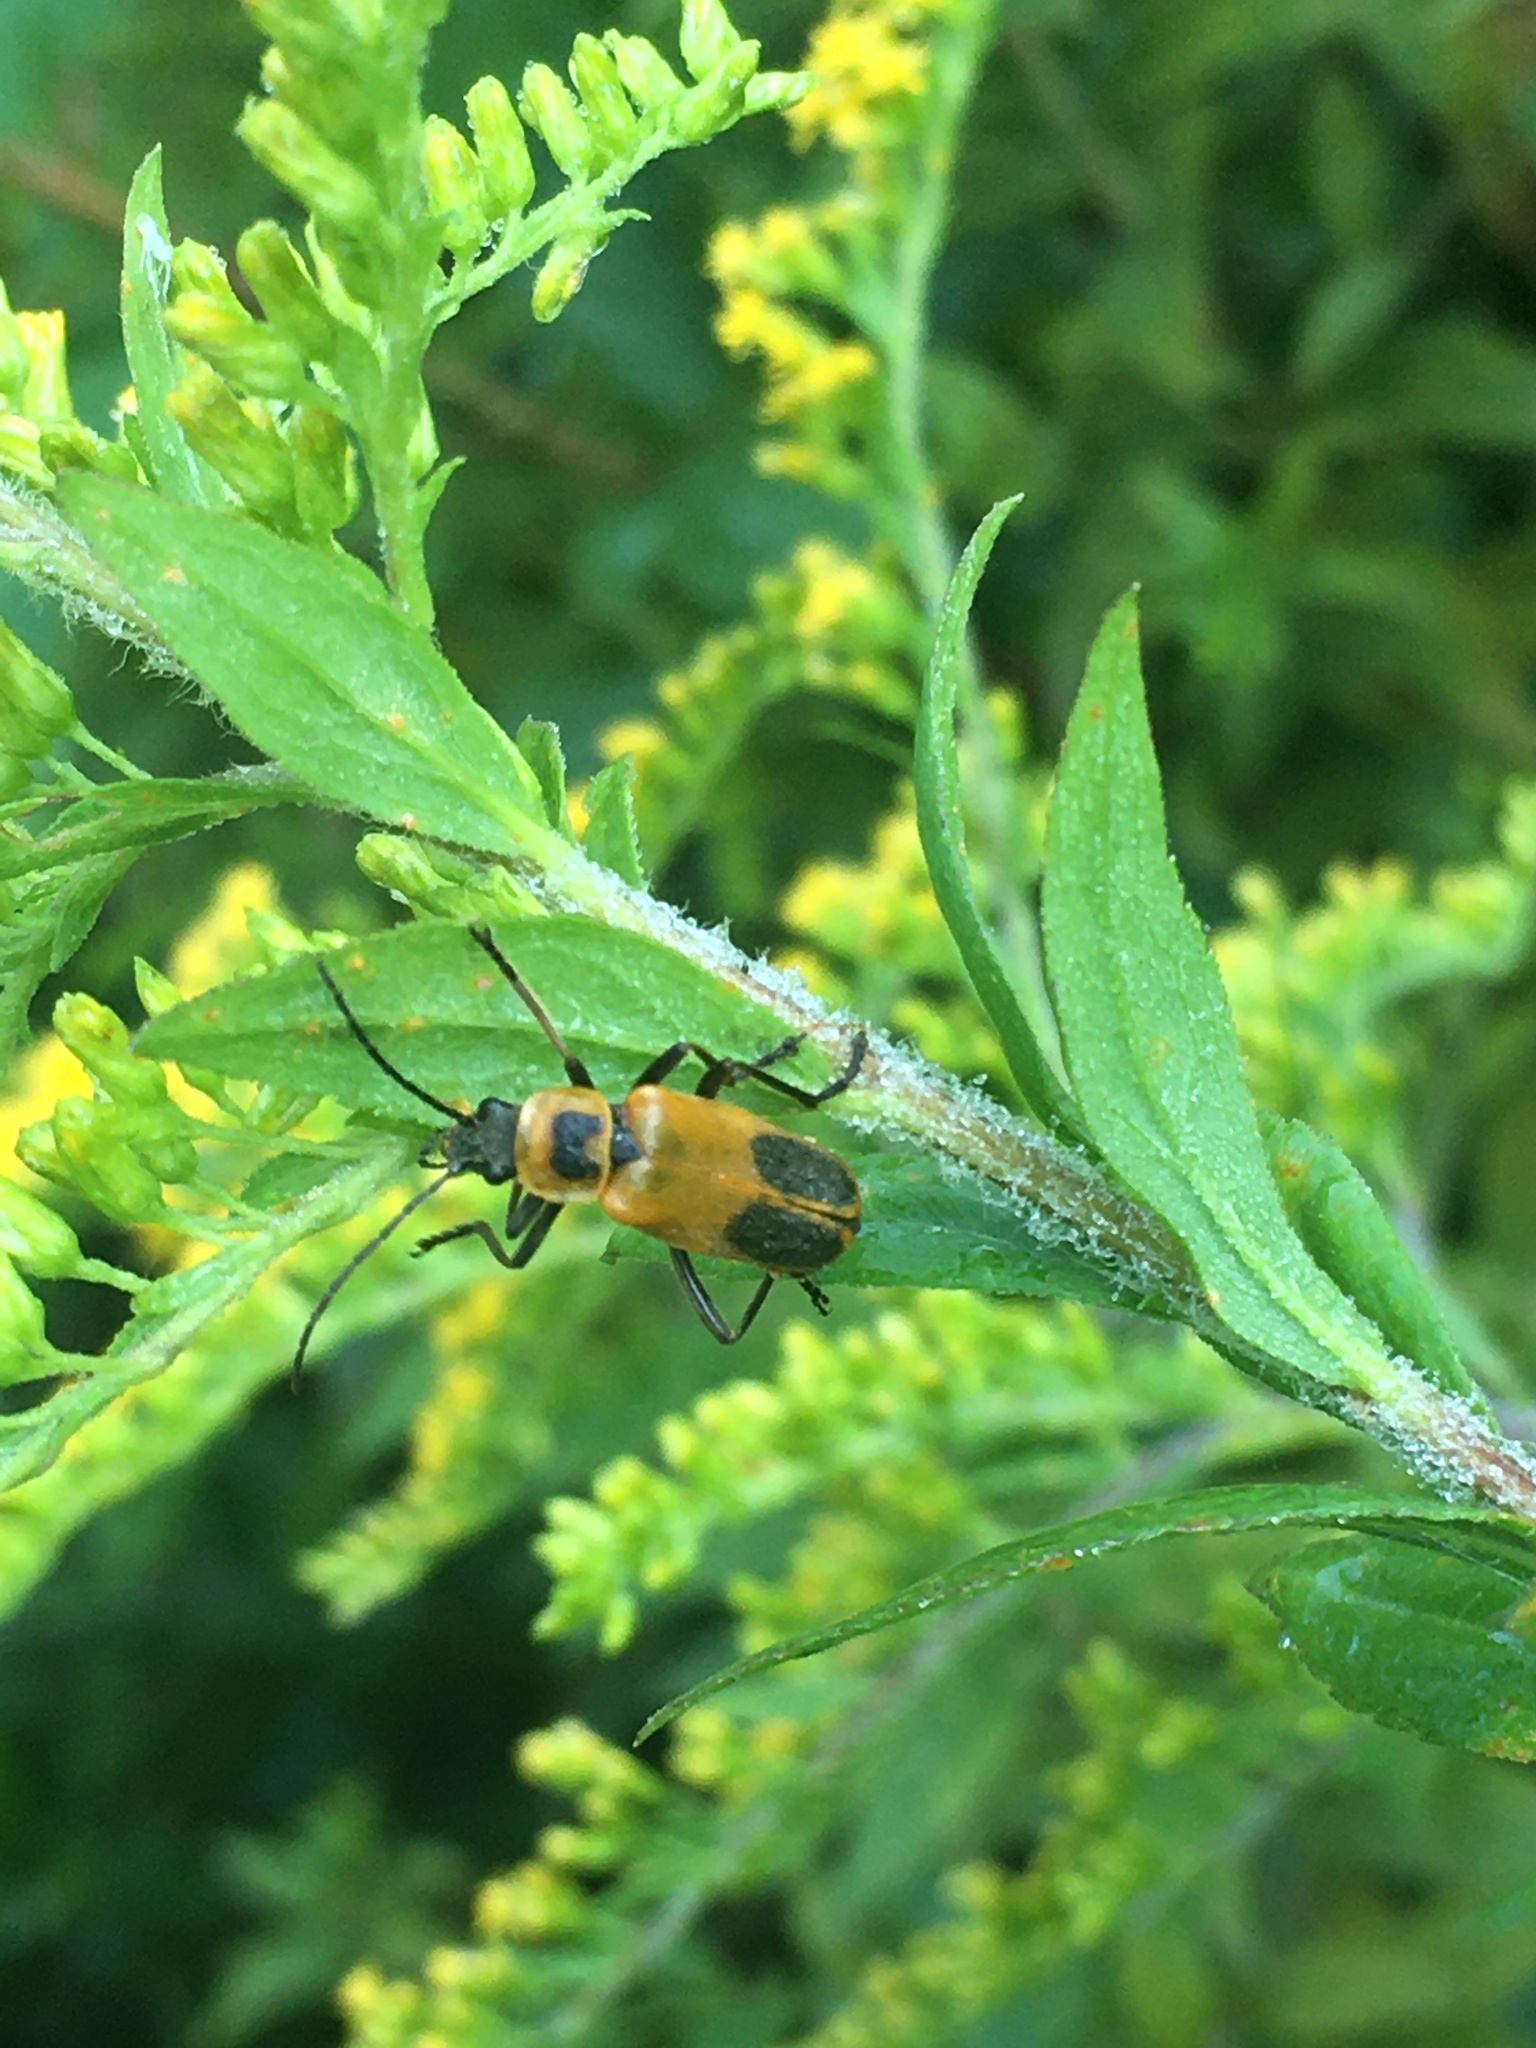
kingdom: Animalia
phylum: Arthropoda
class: Insecta
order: Coleoptera
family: Cantharidae
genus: Chauliognathus
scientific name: Chauliognathus pensylvanicus
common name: Goldenrod soldier beetle
